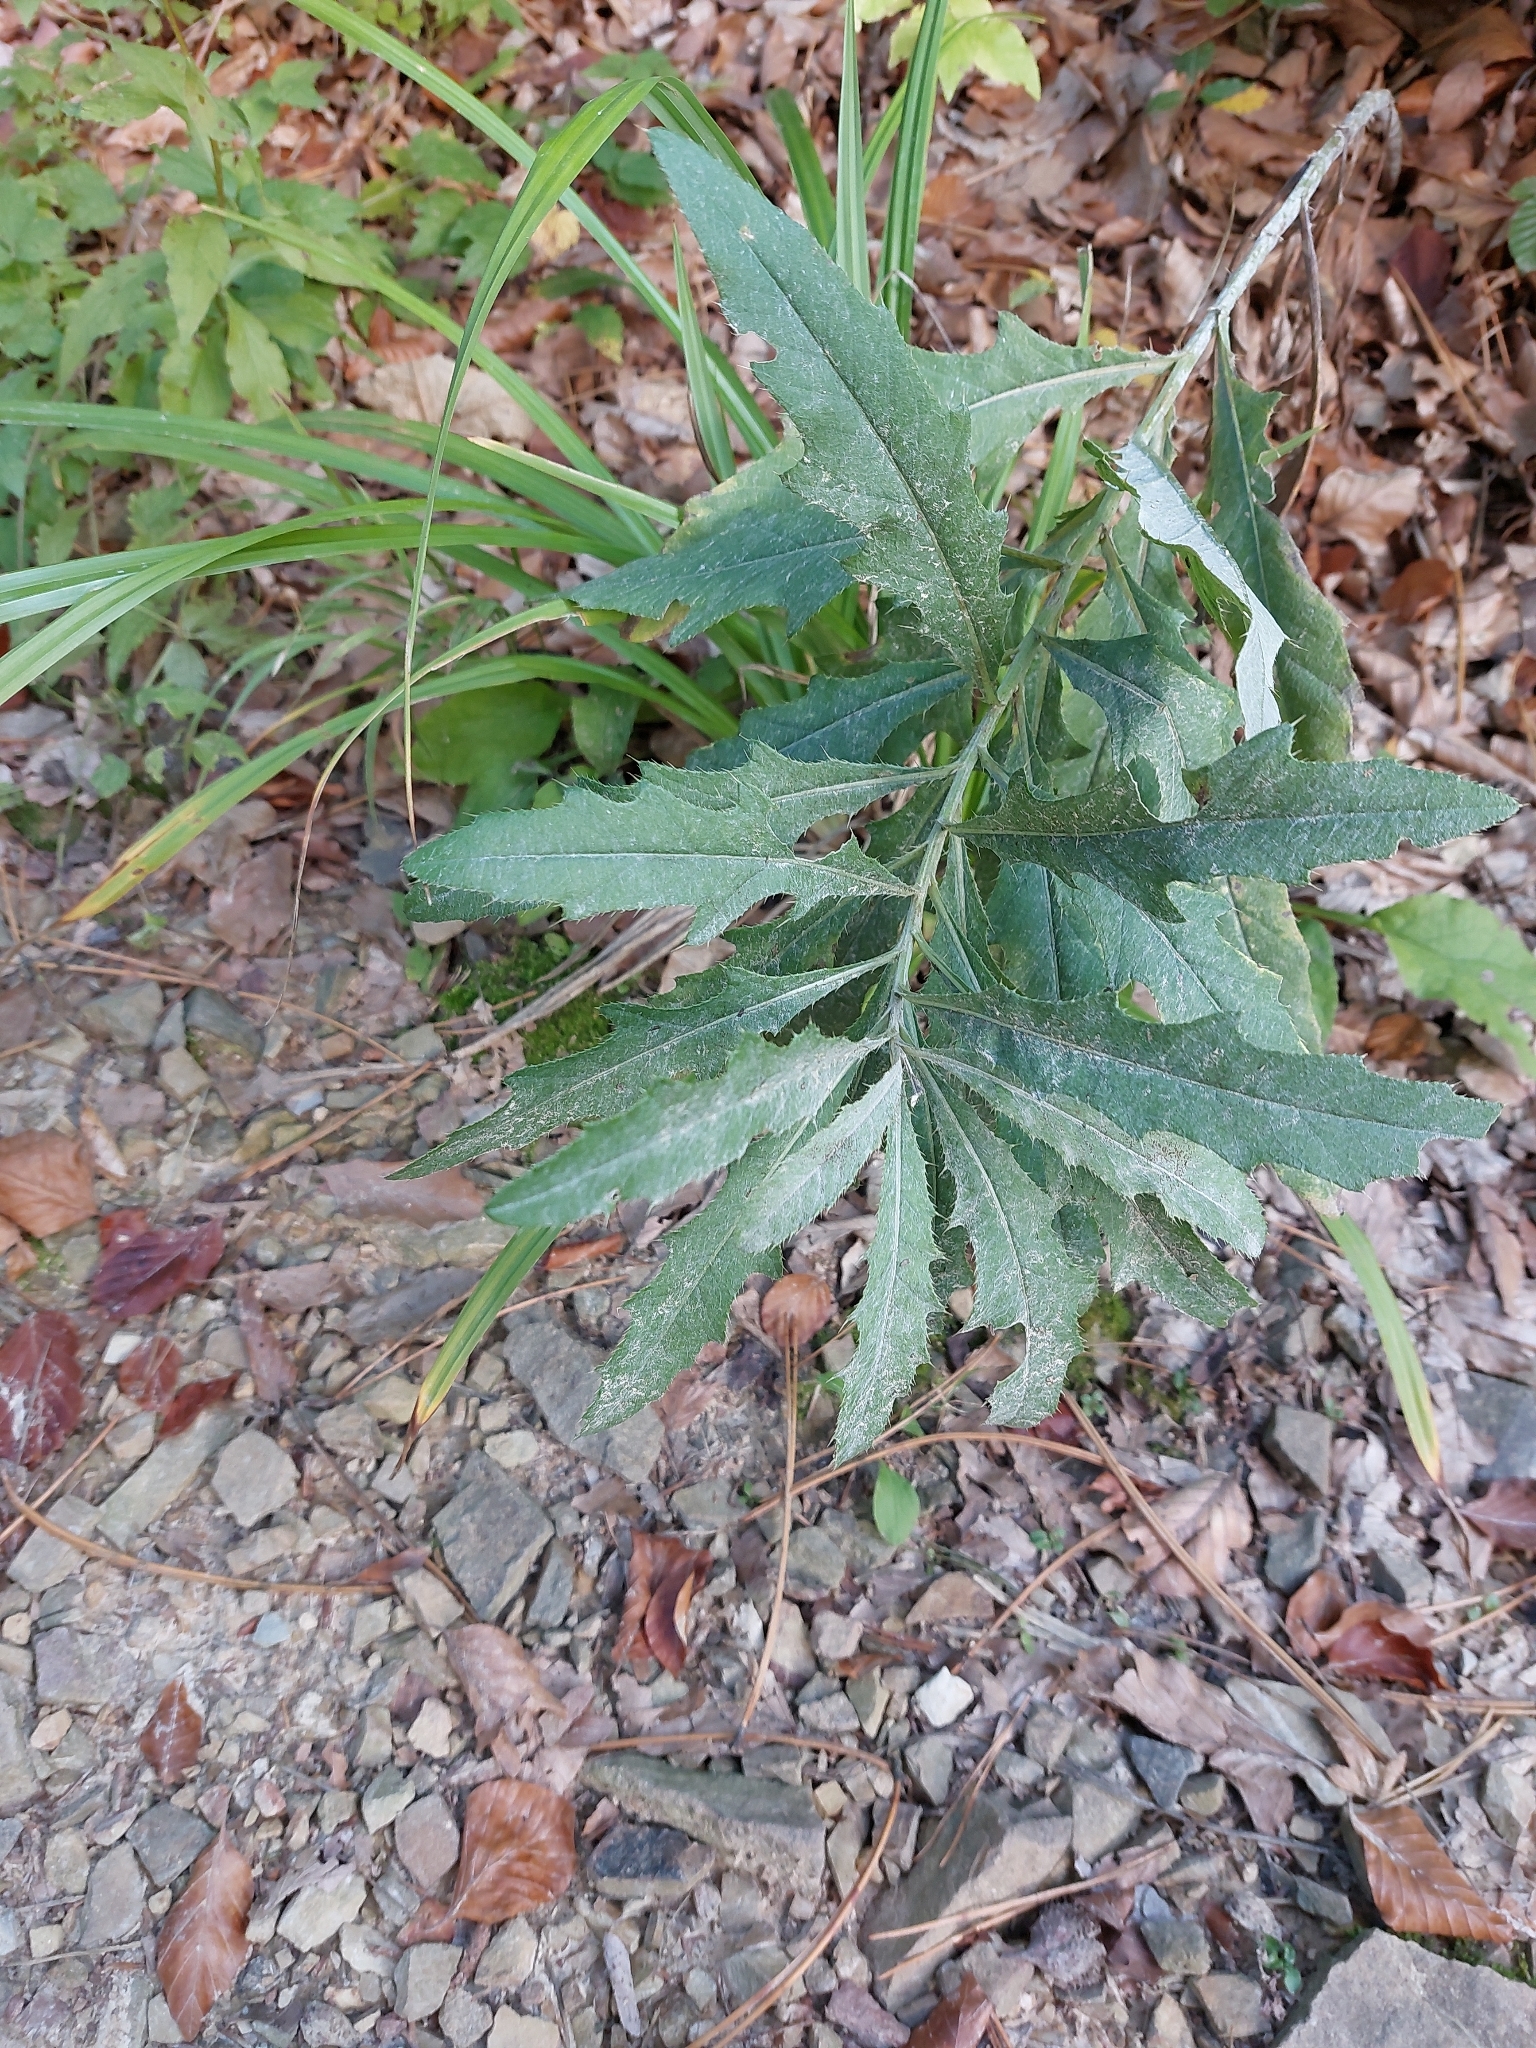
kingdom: Plantae
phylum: Tracheophyta
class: Magnoliopsida
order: Asterales
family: Asteraceae
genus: Cirsium
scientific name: Cirsium arvense
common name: Creeping thistle
